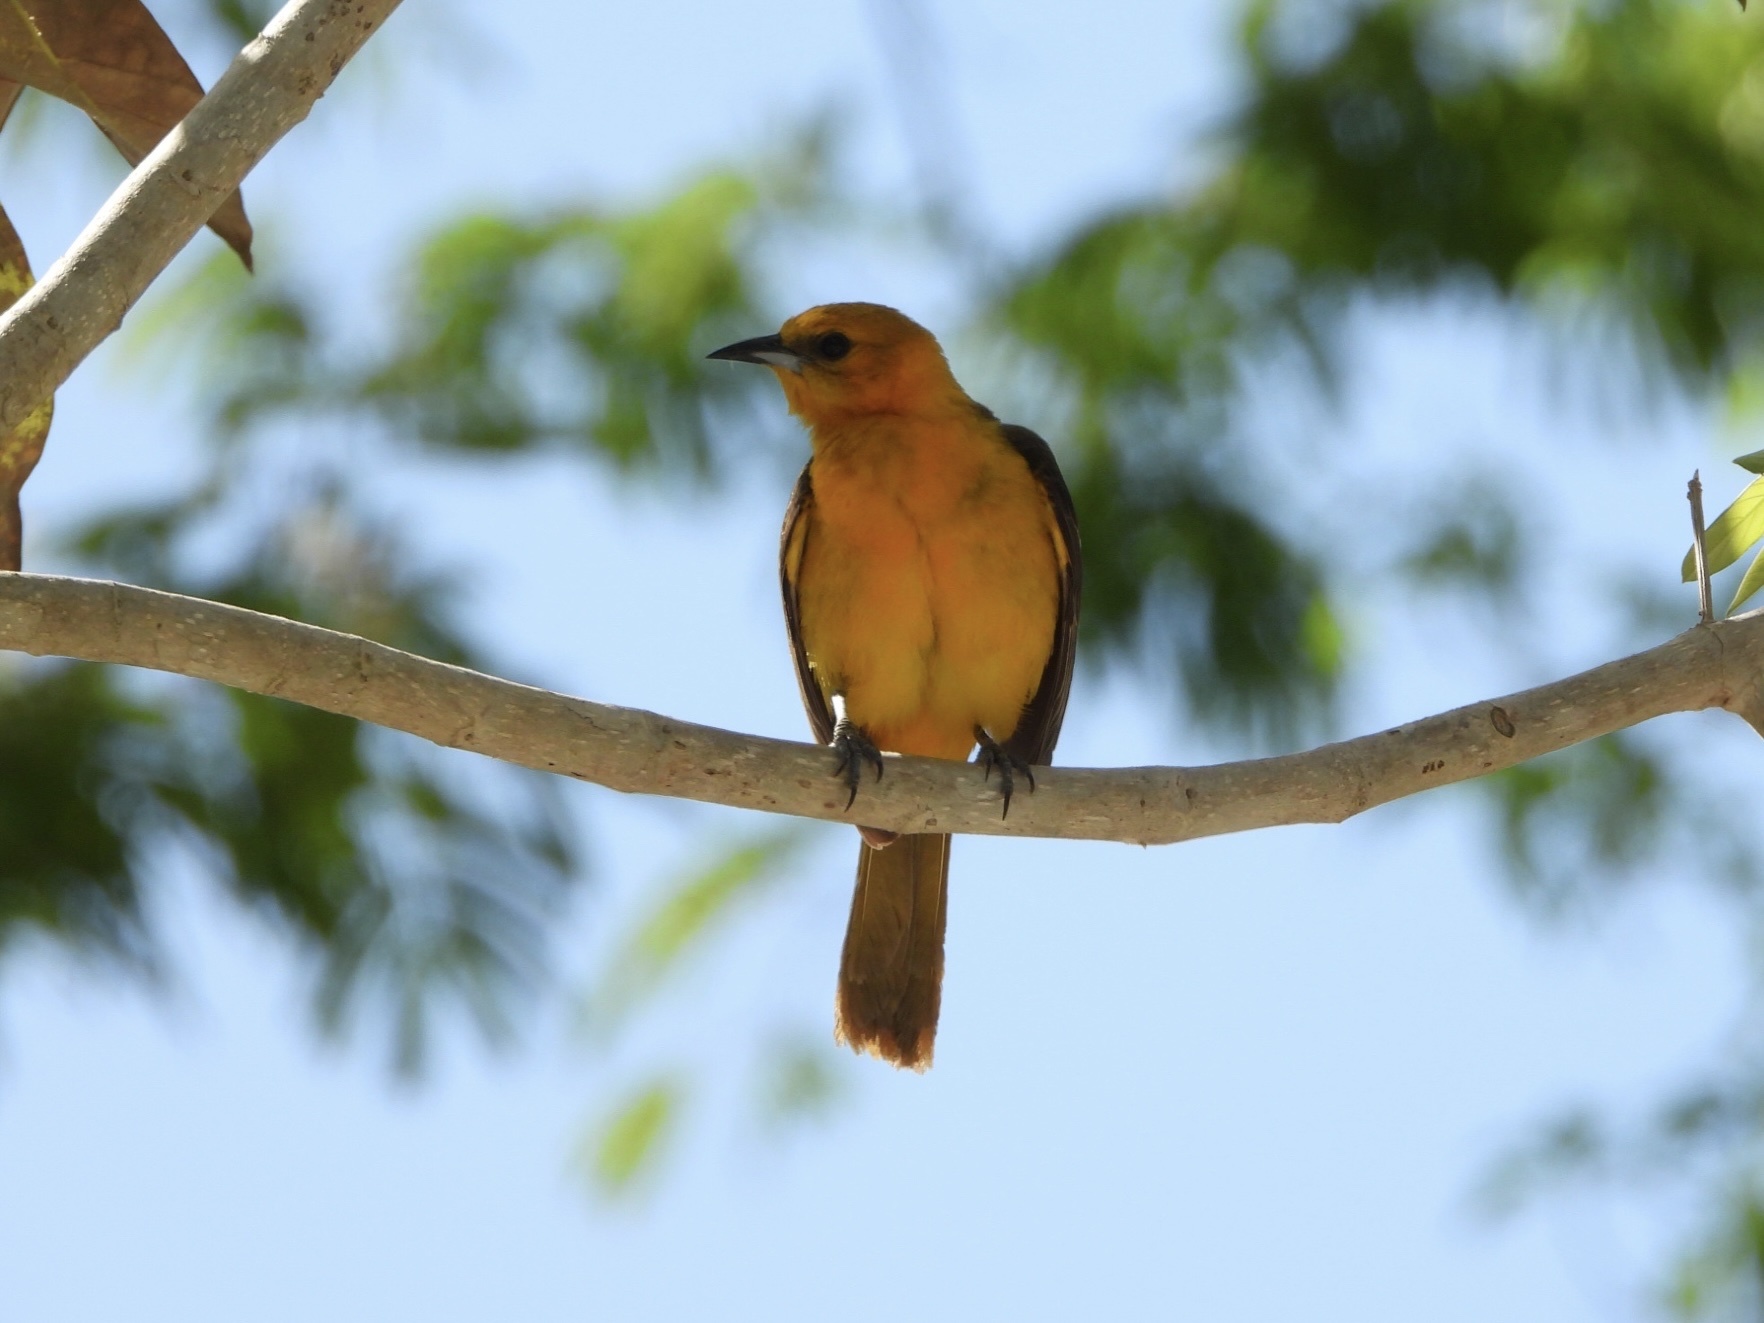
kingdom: Animalia
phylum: Chordata
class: Aves
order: Passeriformes
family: Icteridae
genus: Icterus
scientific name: Icterus cucullatus
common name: Hooded oriole
